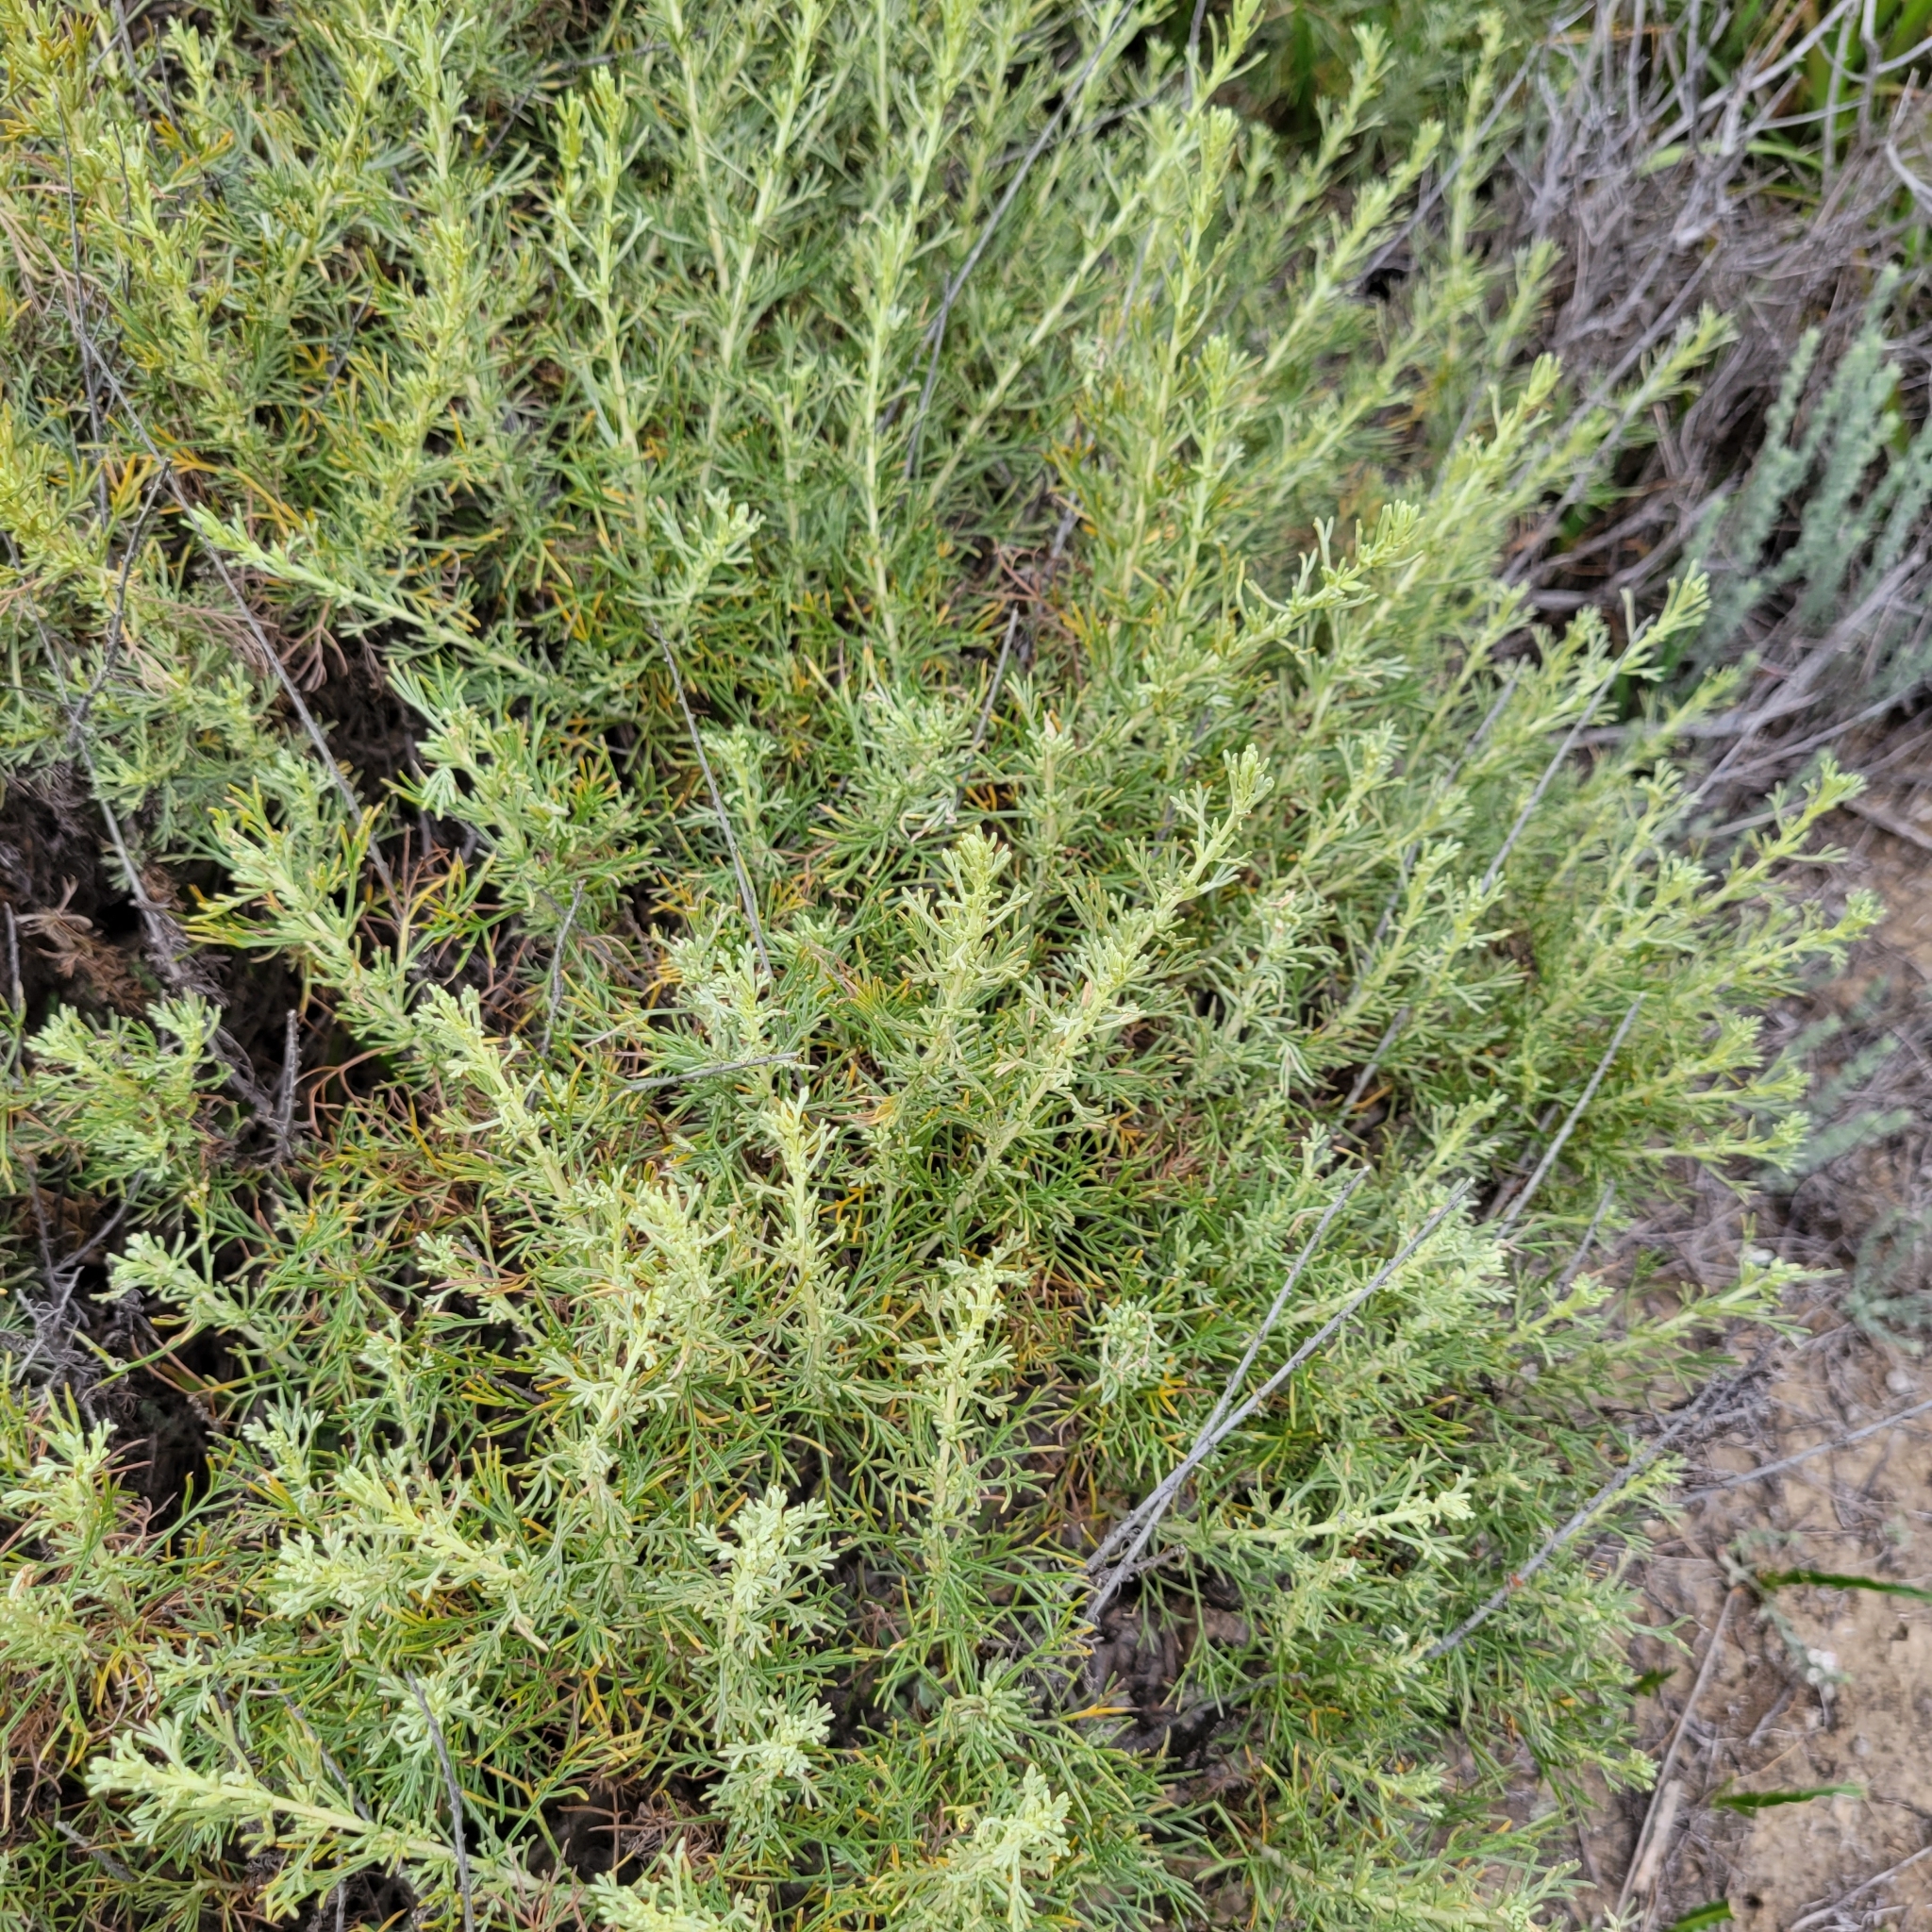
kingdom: Plantae
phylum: Tracheophyta
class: Magnoliopsida
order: Asterales
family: Asteraceae
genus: Artemisia
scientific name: Artemisia californica
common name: California sagebrush
